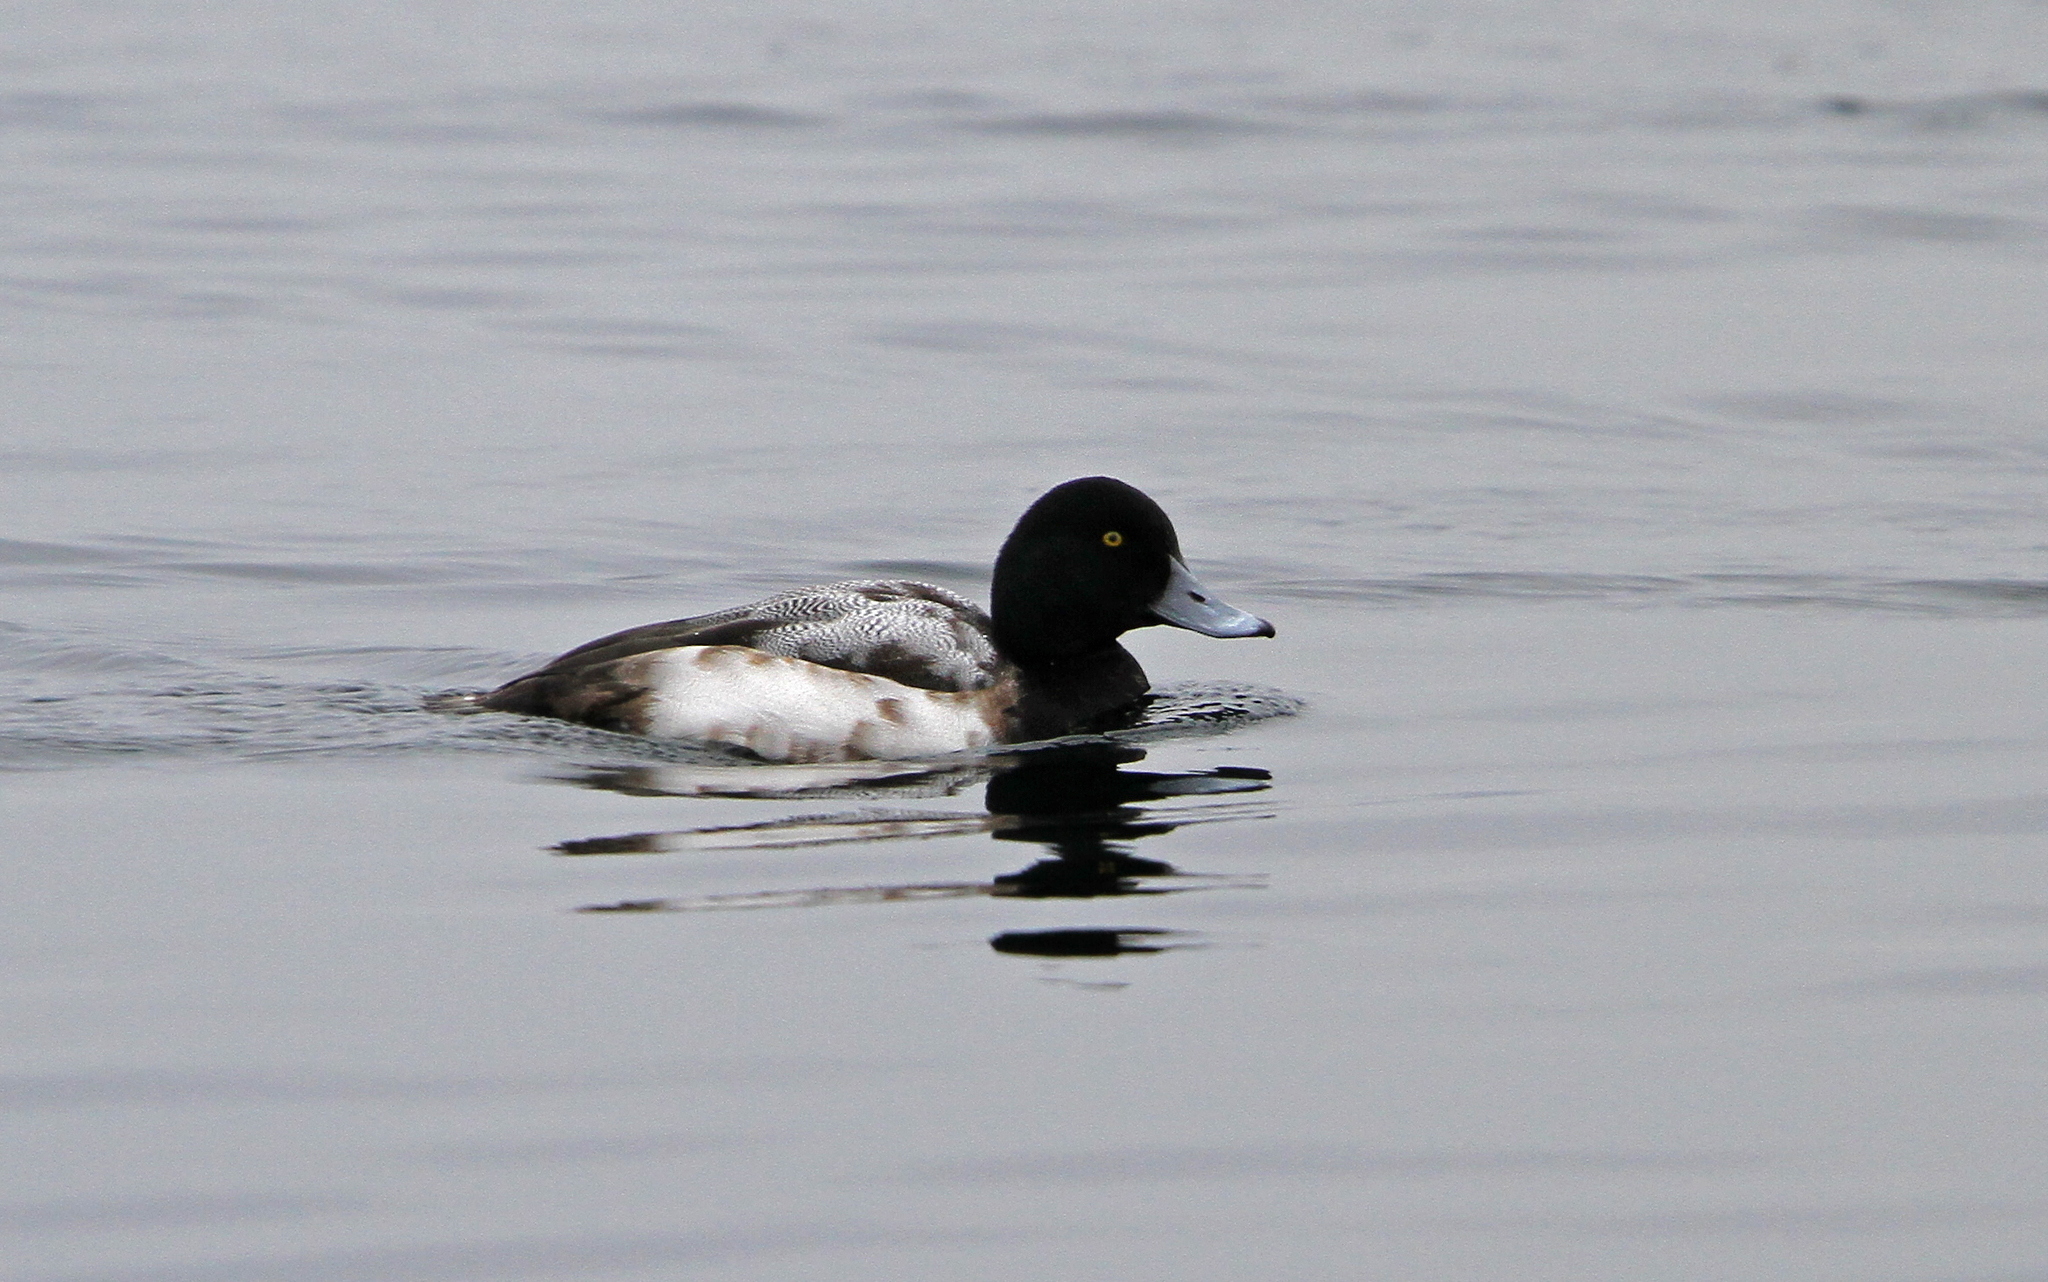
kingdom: Animalia
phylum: Chordata
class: Aves
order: Anseriformes
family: Anatidae
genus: Aythya
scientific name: Aythya marila
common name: Greater scaup
